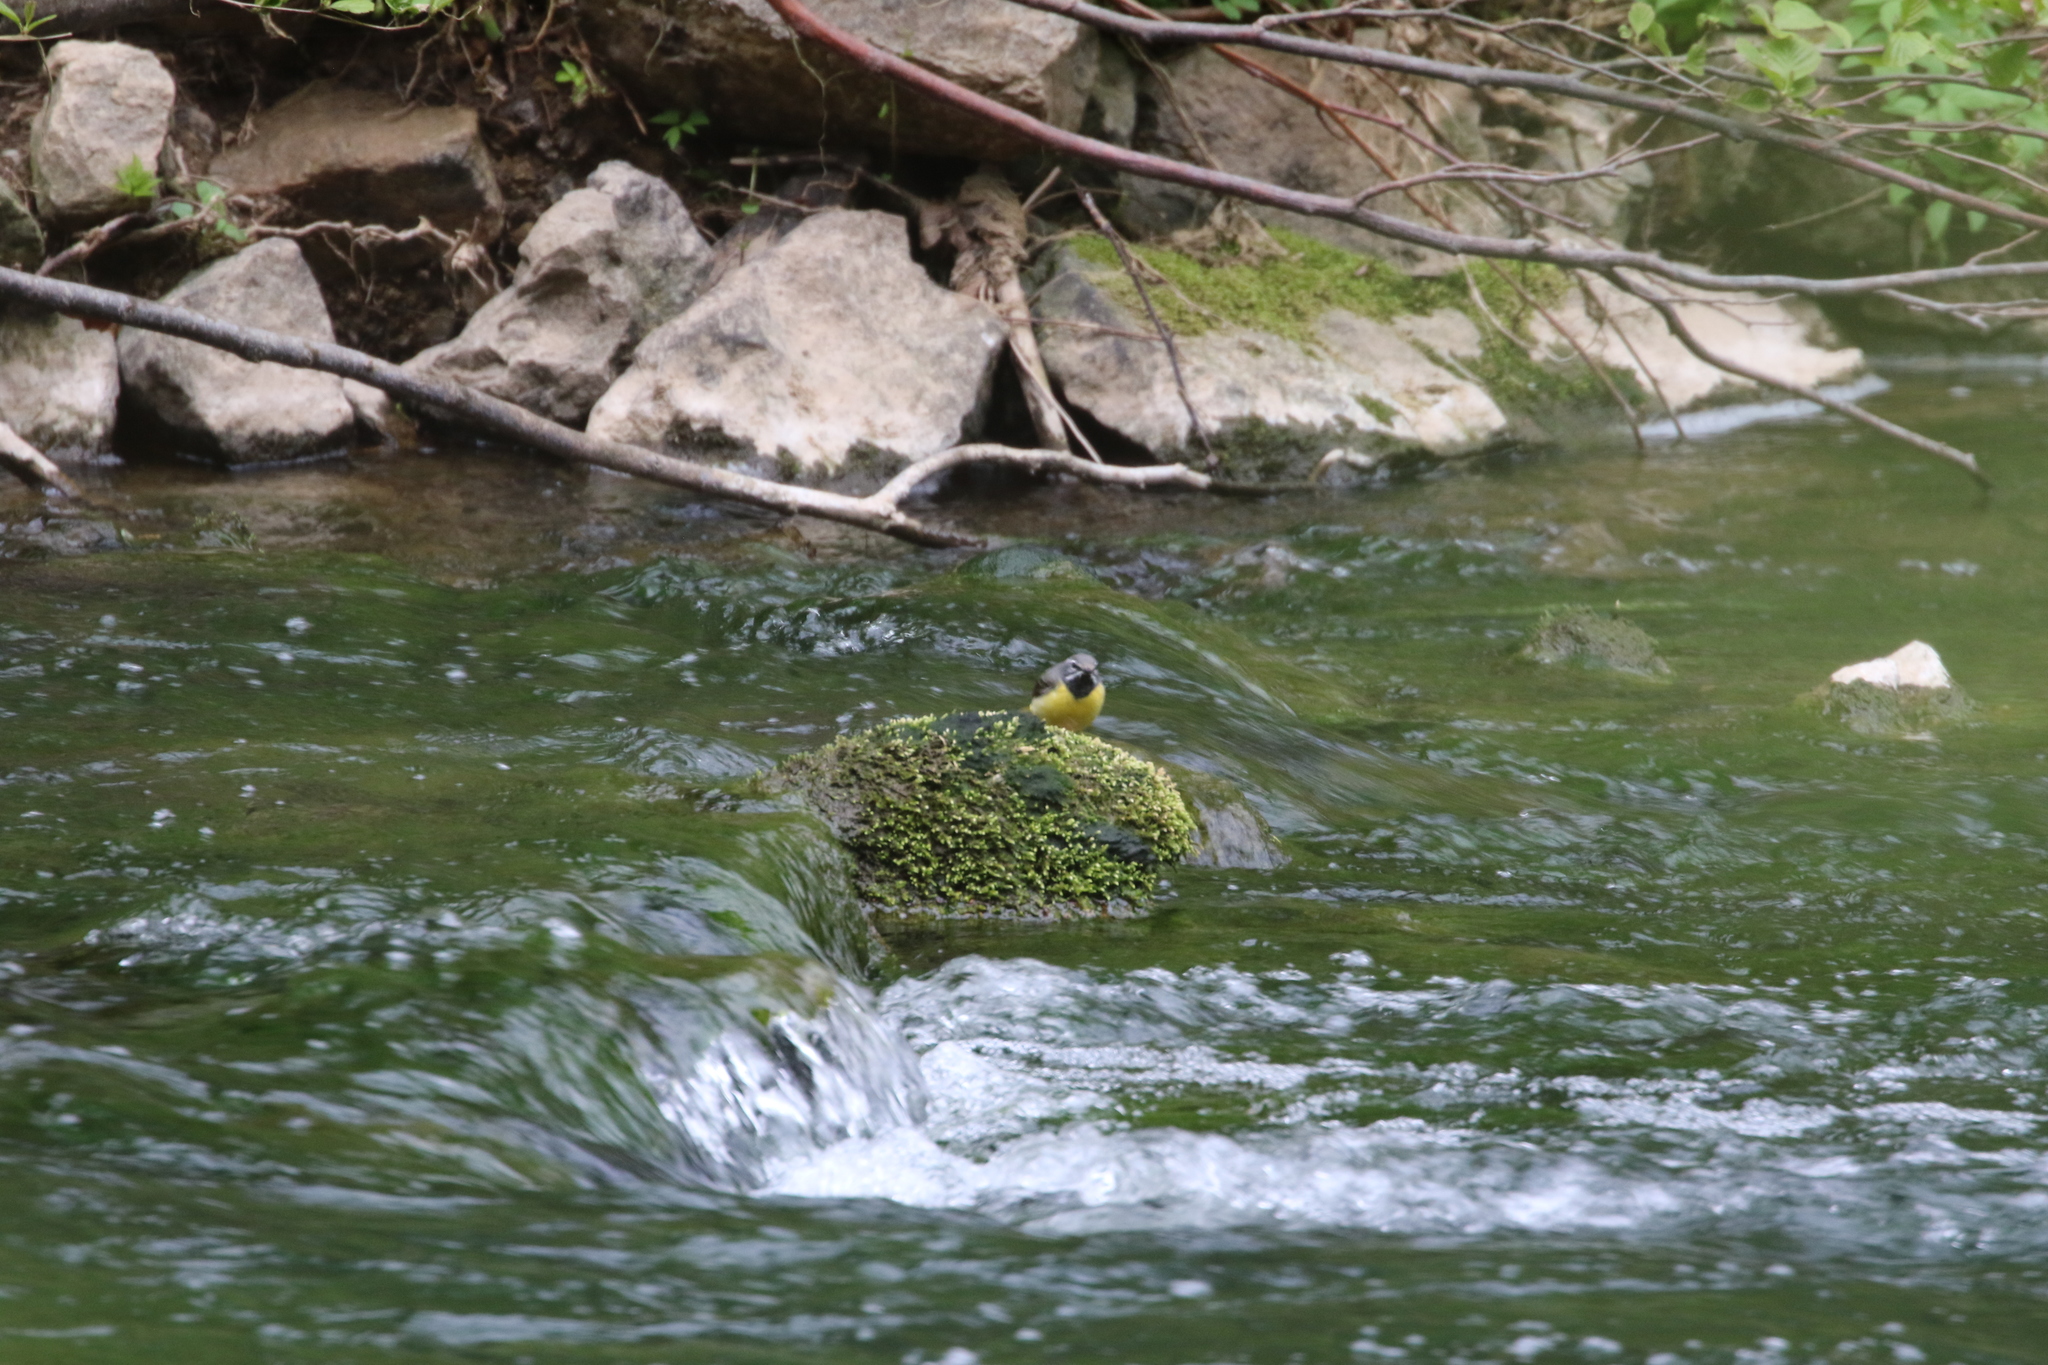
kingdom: Animalia
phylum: Chordata
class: Aves
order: Passeriformes
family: Motacillidae
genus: Motacilla
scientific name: Motacilla cinerea
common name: Grey wagtail
